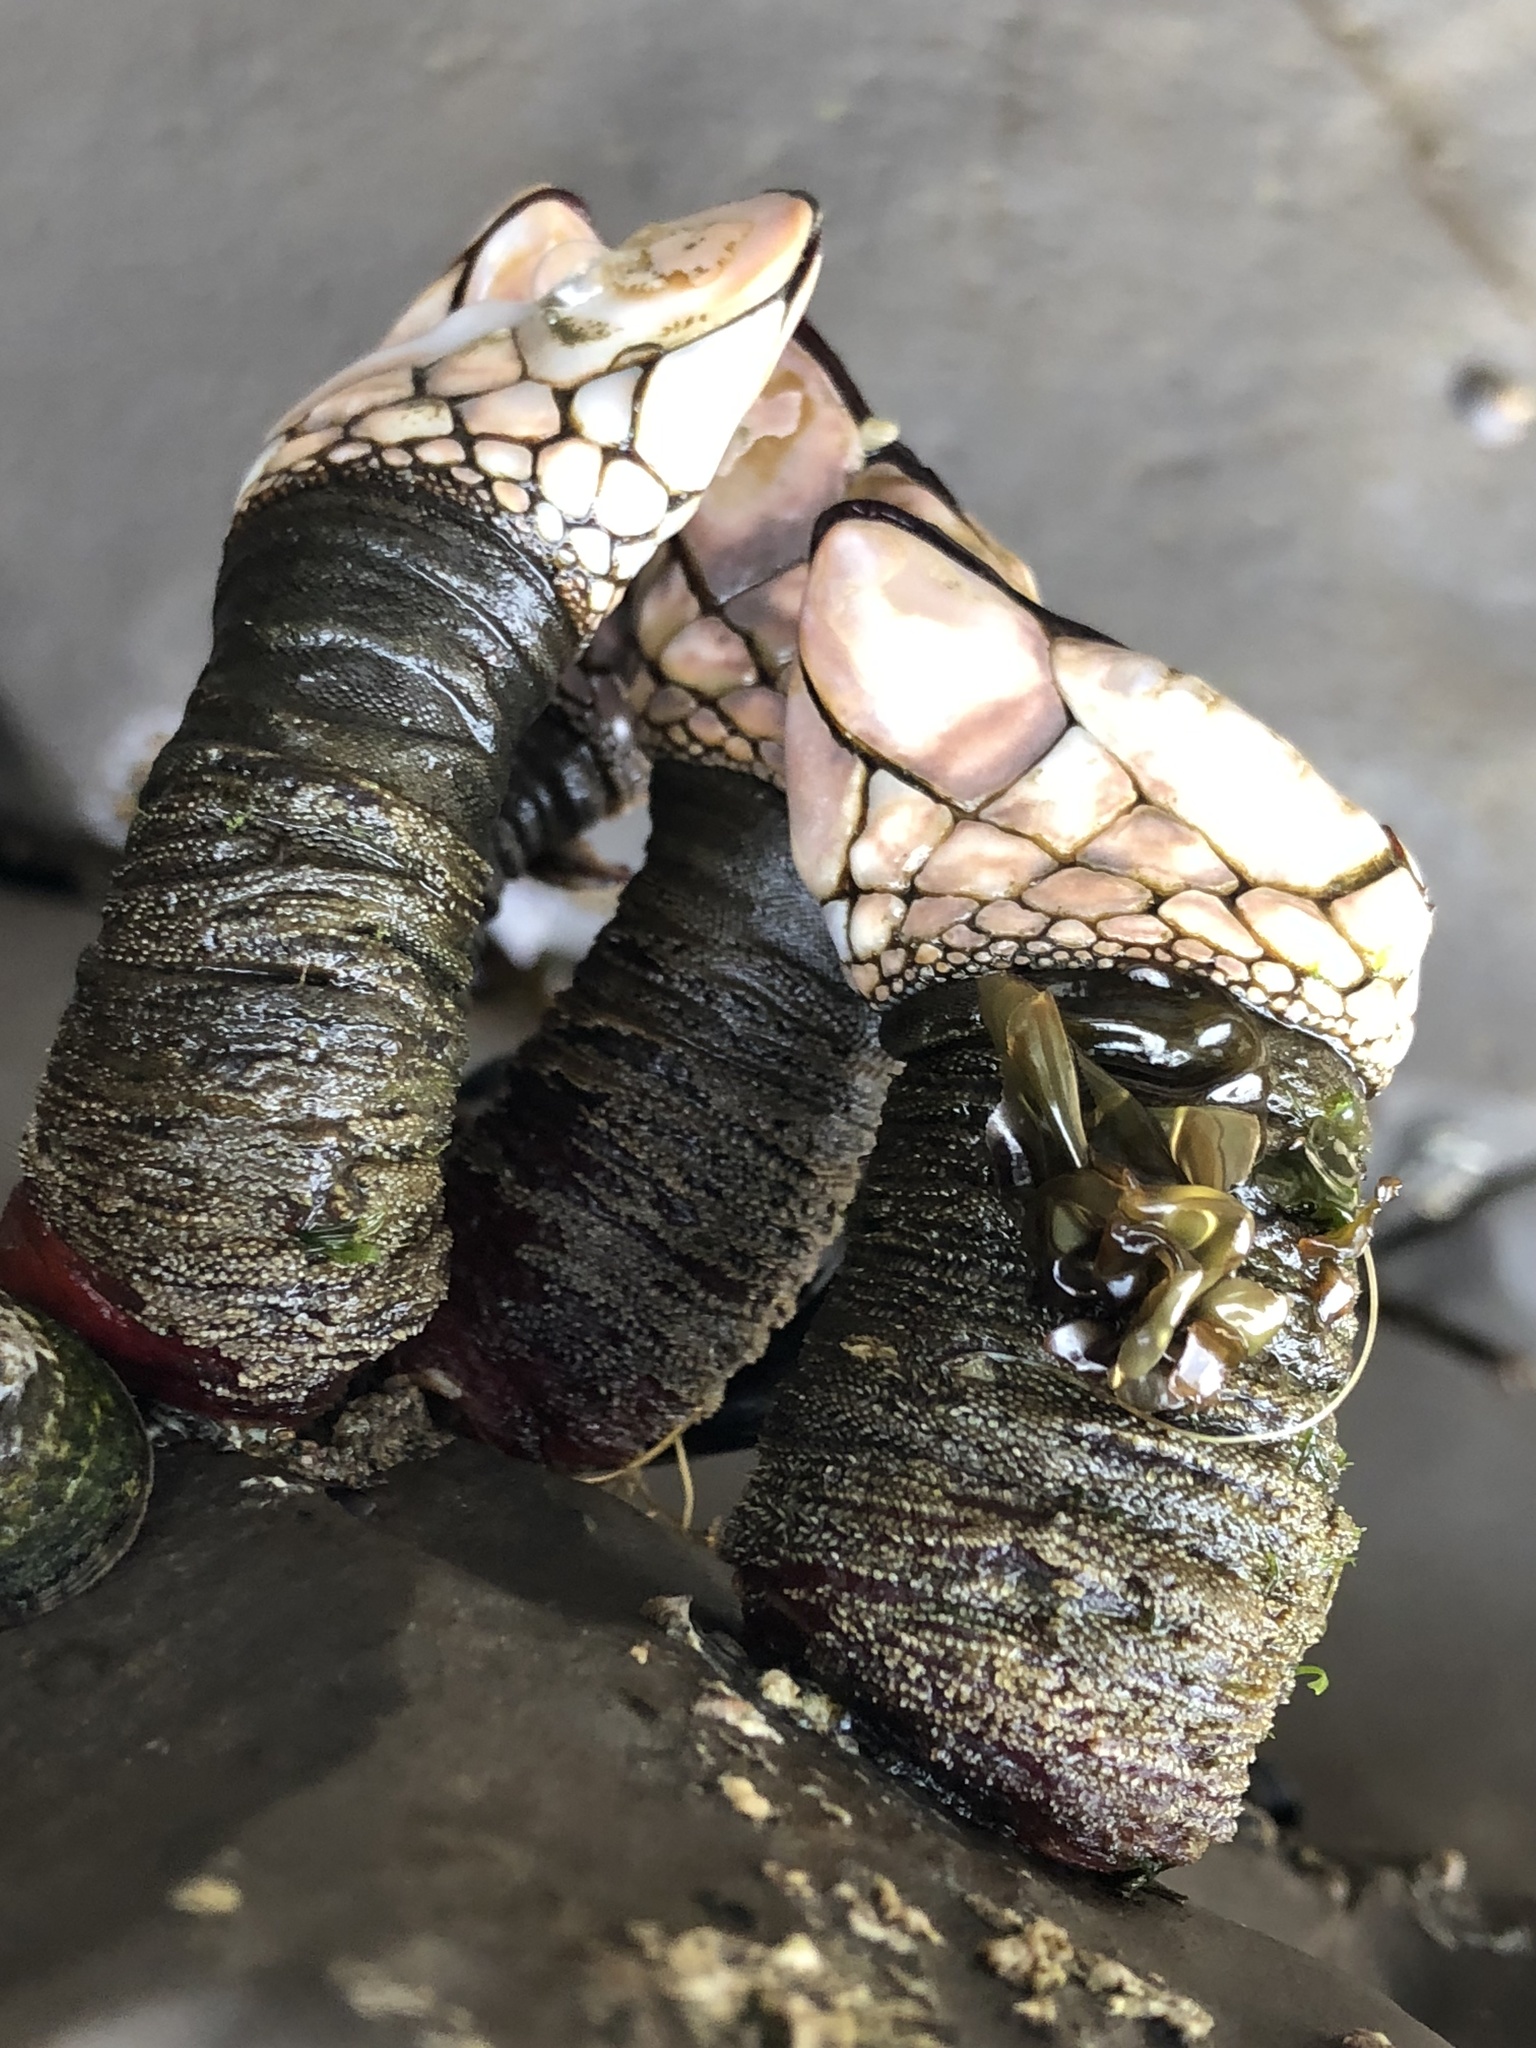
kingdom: Animalia
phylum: Arthropoda
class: Maxillopoda
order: Pedunculata
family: Pollicipedidae
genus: Pollicipes
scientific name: Pollicipes polymerus
